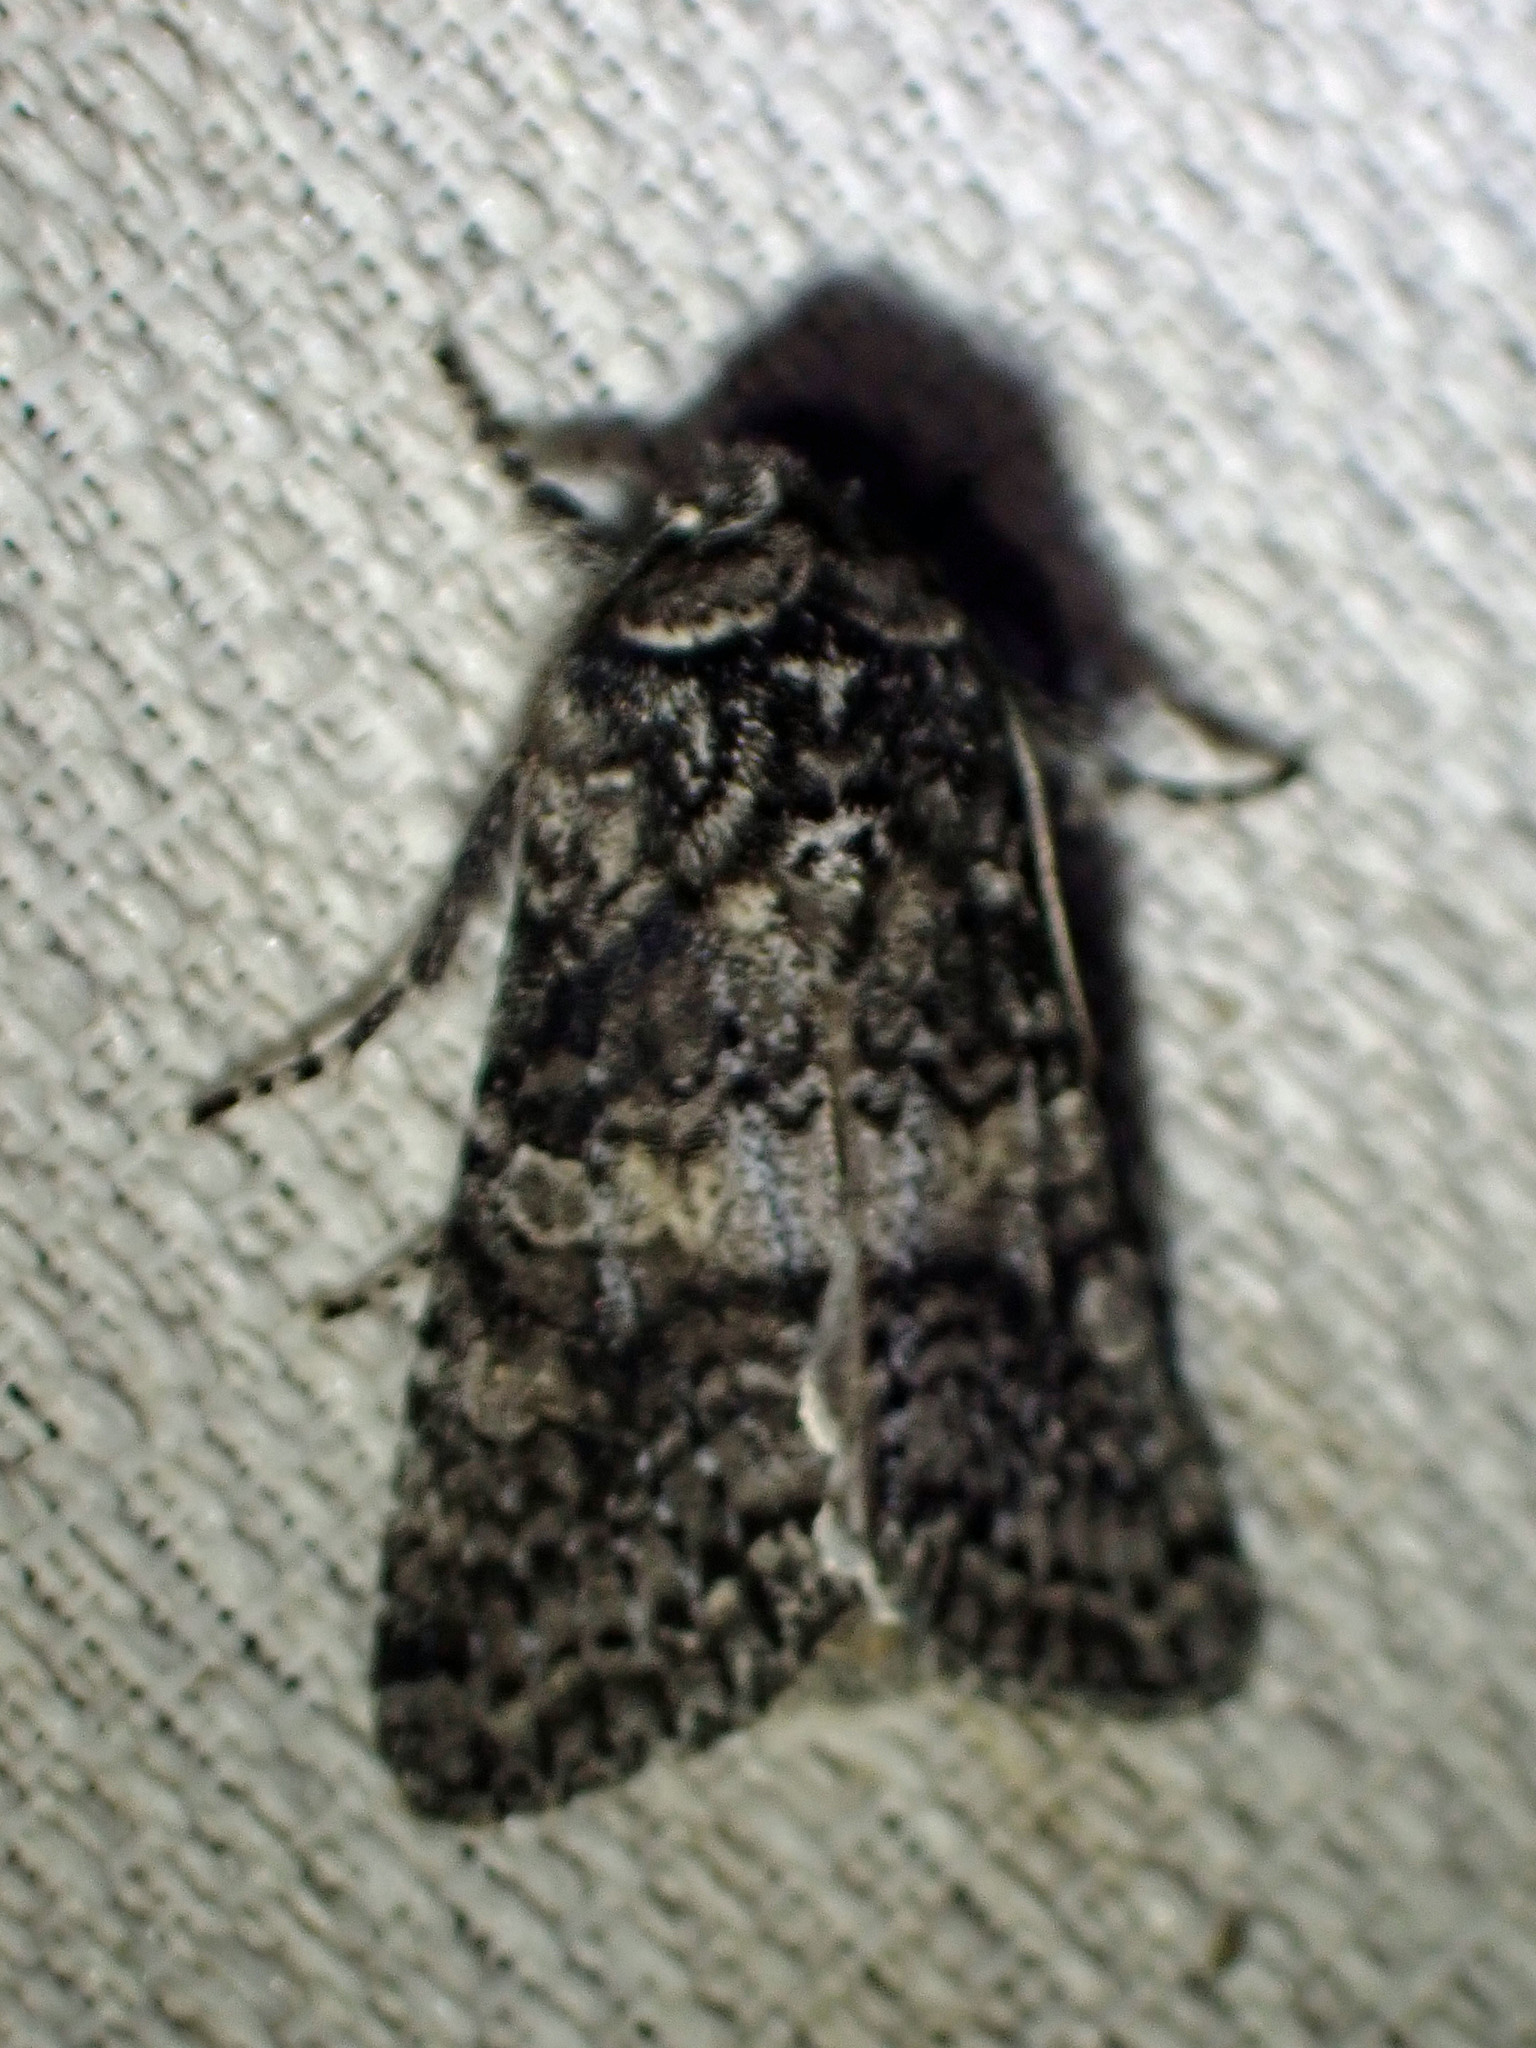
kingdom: Animalia
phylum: Arthropoda
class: Insecta
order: Lepidoptera
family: Noctuidae
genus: Egira
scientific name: Egira dolosa
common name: Lined black aspen cat.
